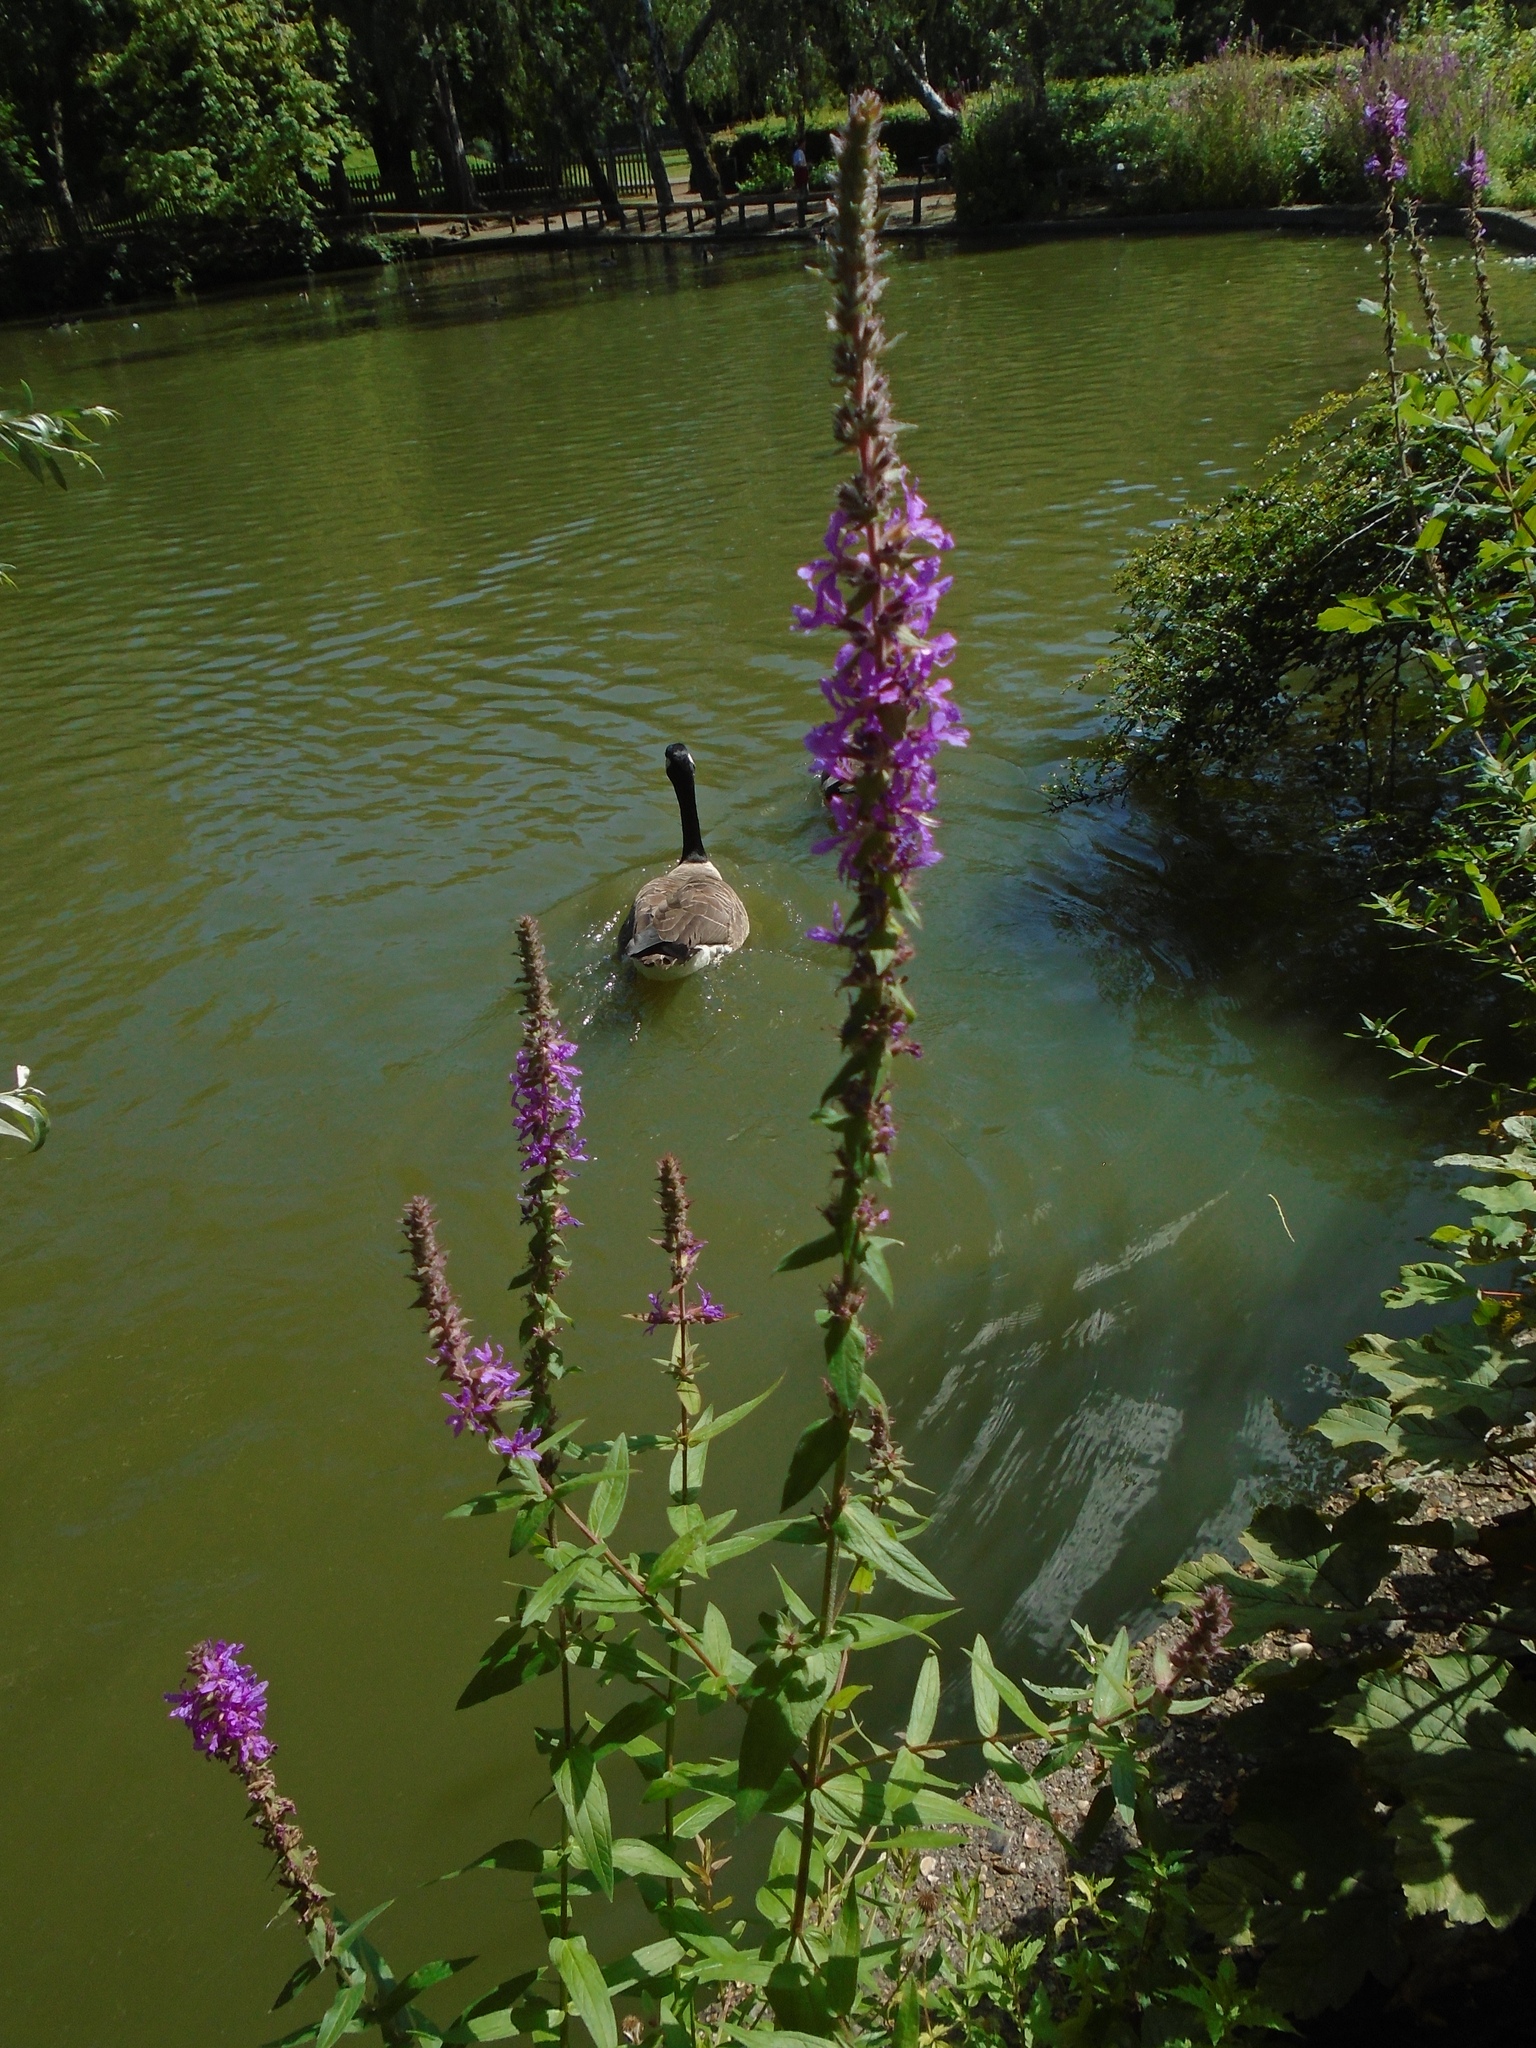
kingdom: Plantae
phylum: Tracheophyta
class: Magnoliopsida
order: Myrtales
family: Lythraceae
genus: Lythrum
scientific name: Lythrum salicaria
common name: Purple loosestrife
